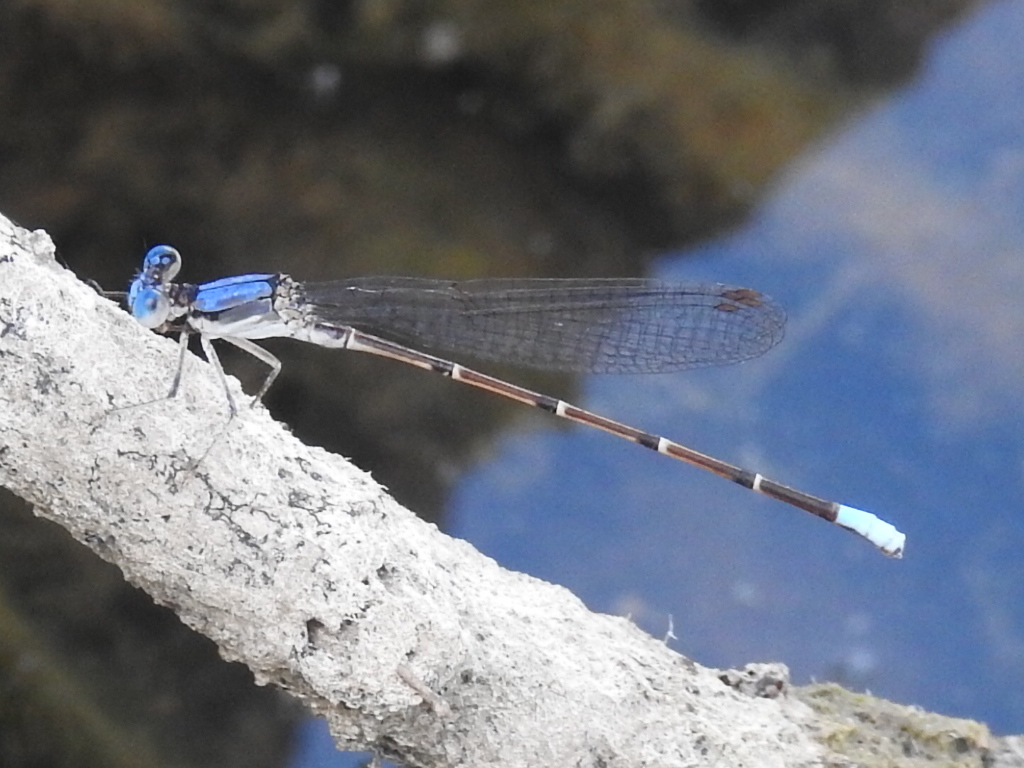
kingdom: Animalia
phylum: Arthropoda
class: Insecta
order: Odonata
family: Coenagrionidae
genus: Argia
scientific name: Argia apicalis
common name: Blue-fronted dancer
